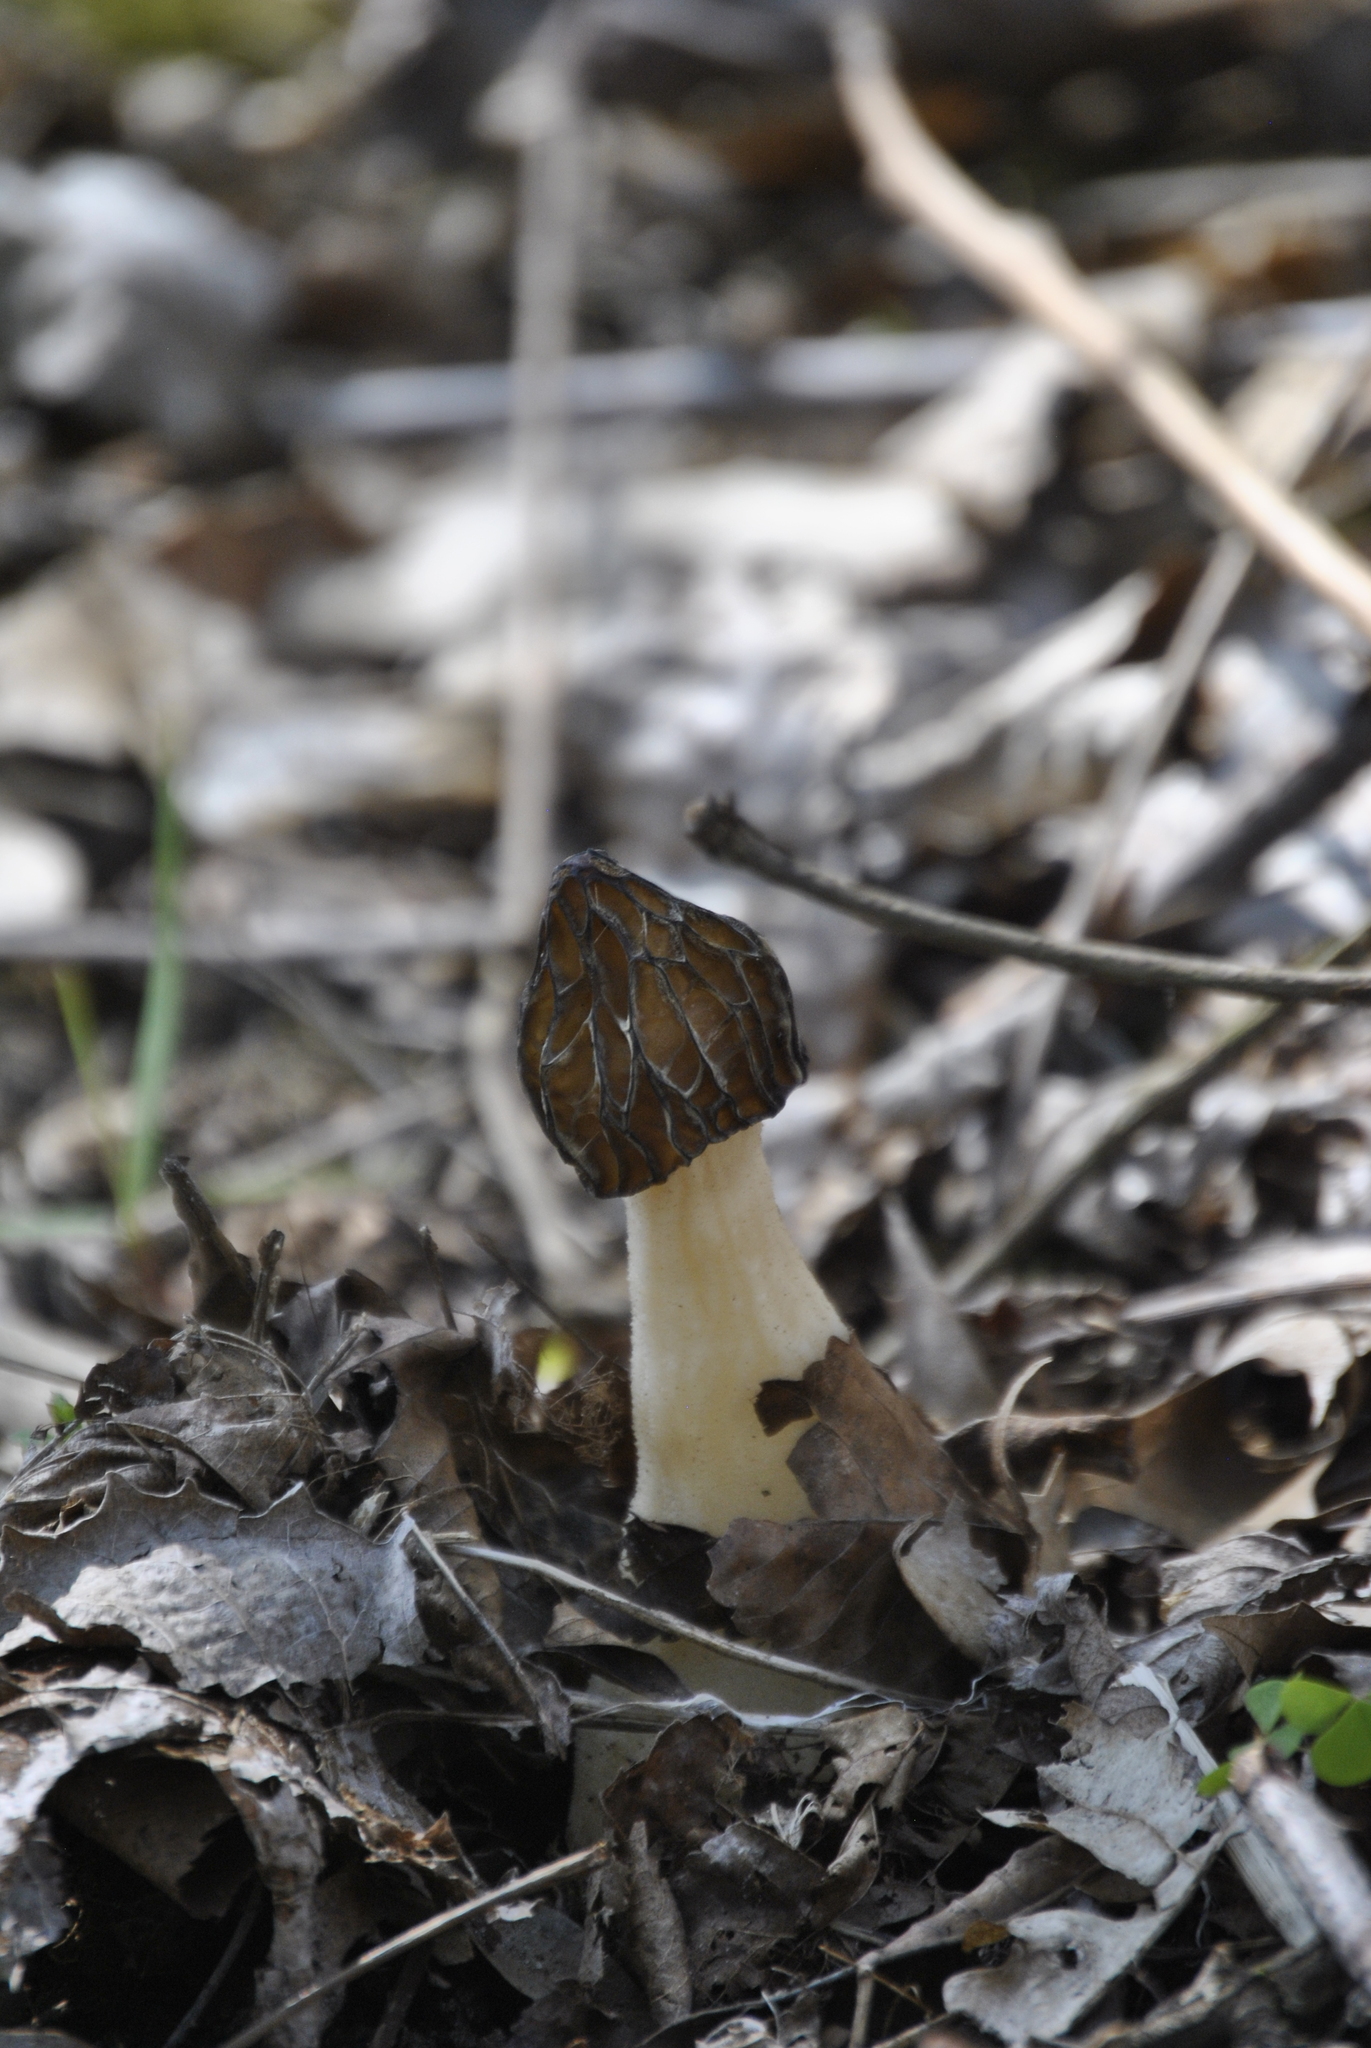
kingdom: Fungi
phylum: Ascomycota
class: Pezizomycetes
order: Pezizales
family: Morchellaceae
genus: Morchella
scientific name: Morchella punctipes
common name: Half-free morel
